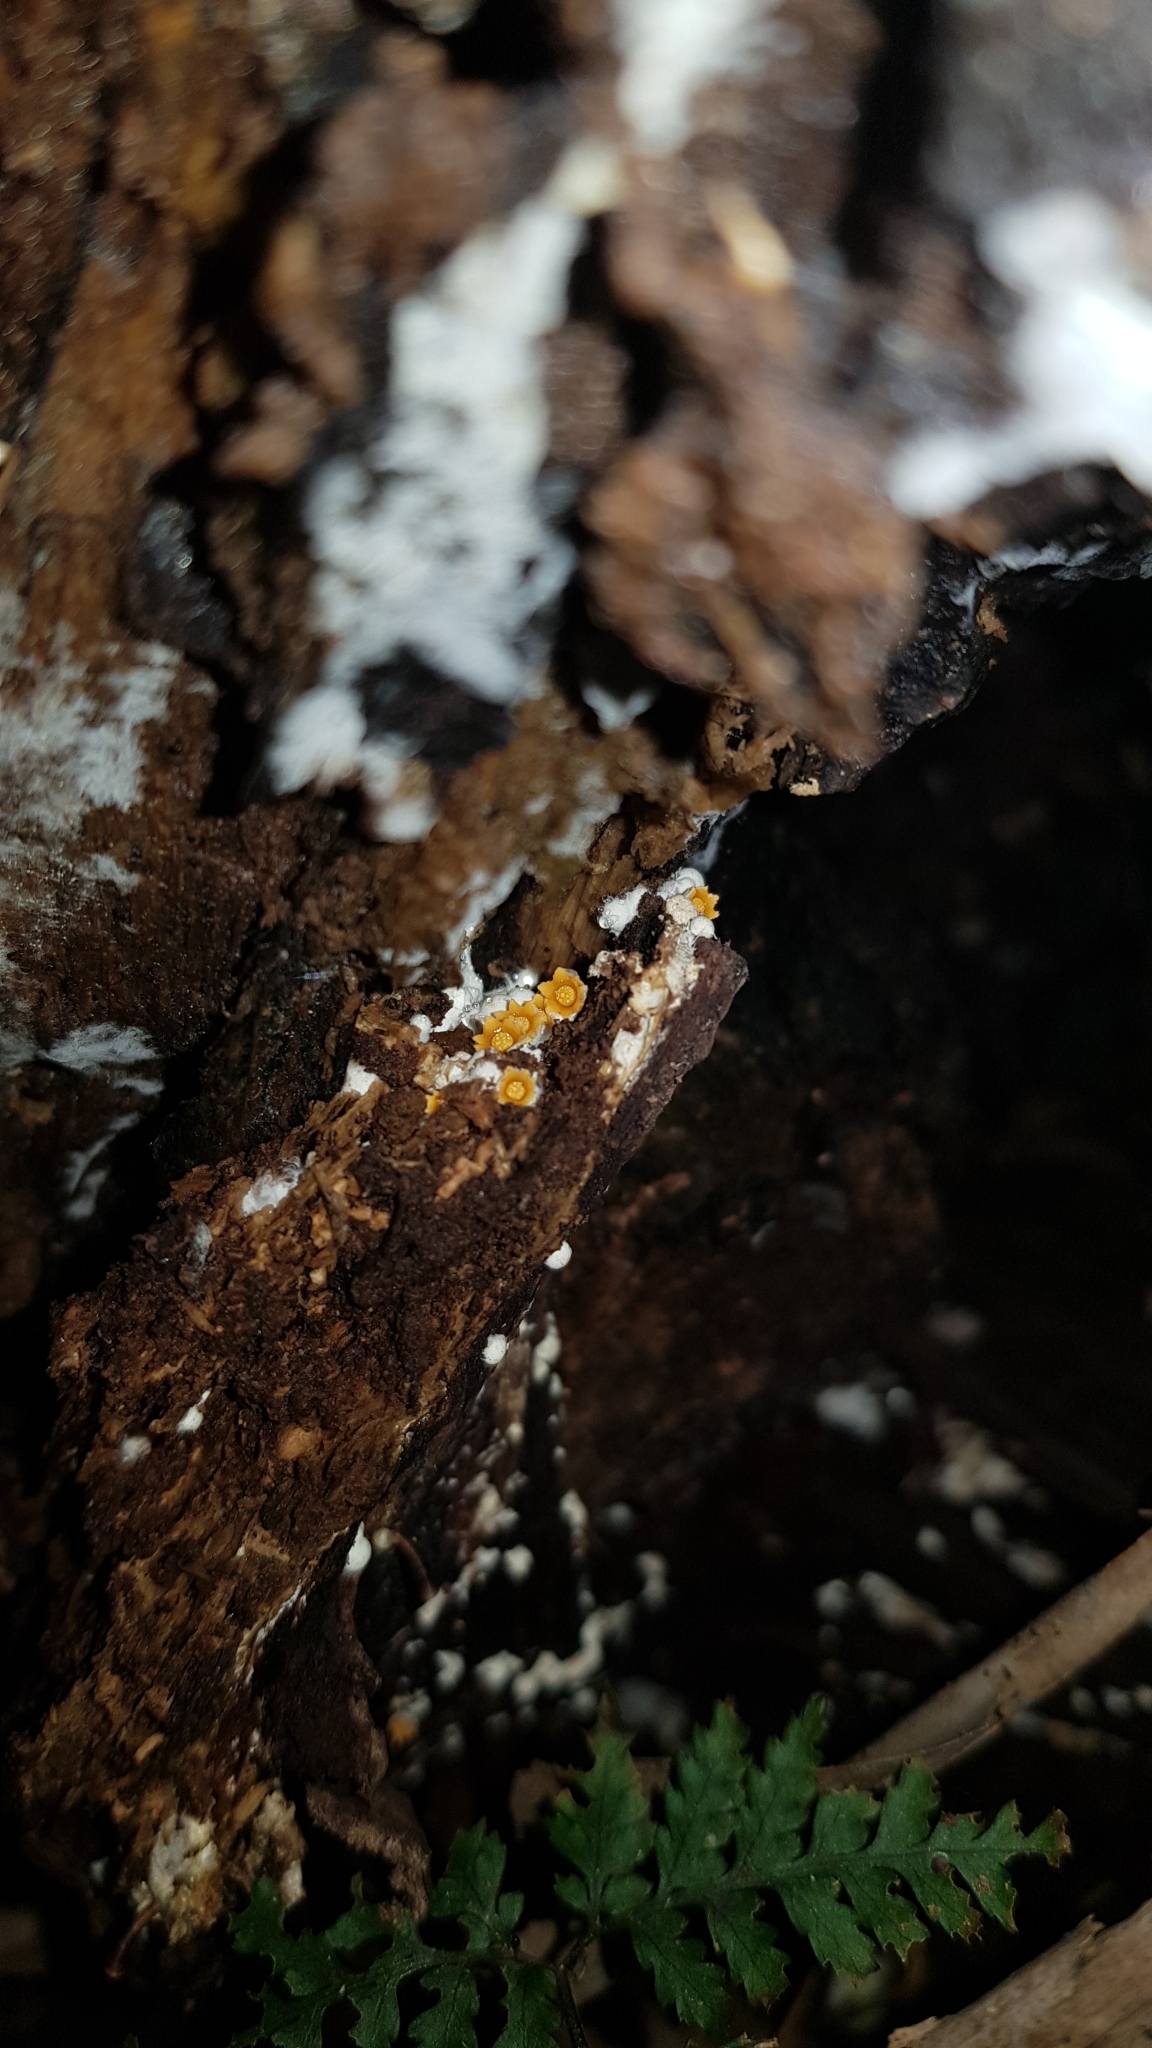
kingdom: Fungi
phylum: Basidiomycota
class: Agaricomycetes
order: Geastrales
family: Geastraceae
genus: Sphaerobolus
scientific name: Sphaerobolus stellatus
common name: Cannon fungus
